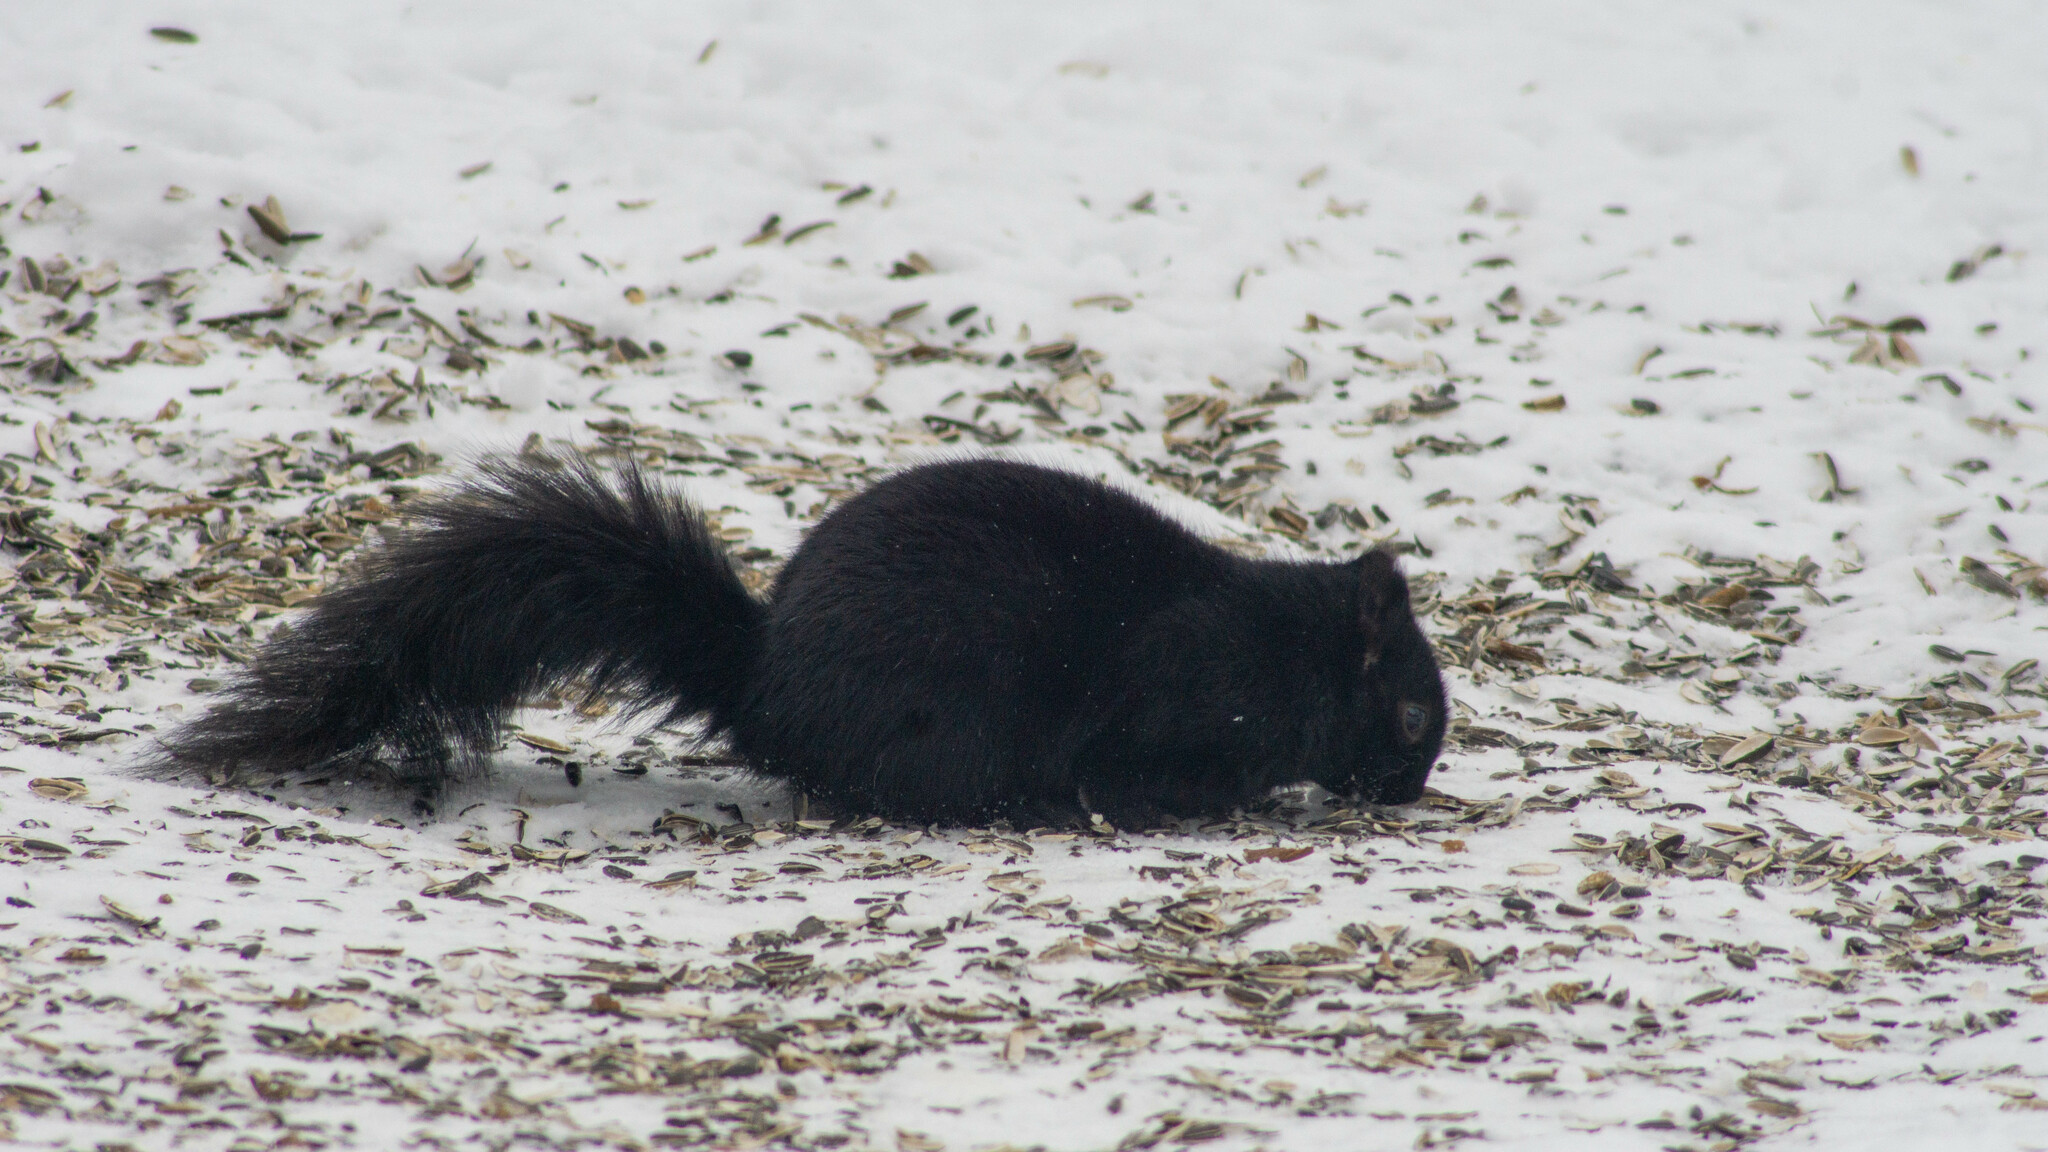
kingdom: Animalia
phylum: Chordata
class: Mammalia
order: Rodentia
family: Sciuridae
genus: Sciurus
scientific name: Sciurus carolinensis
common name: Eastern gray squirrel
